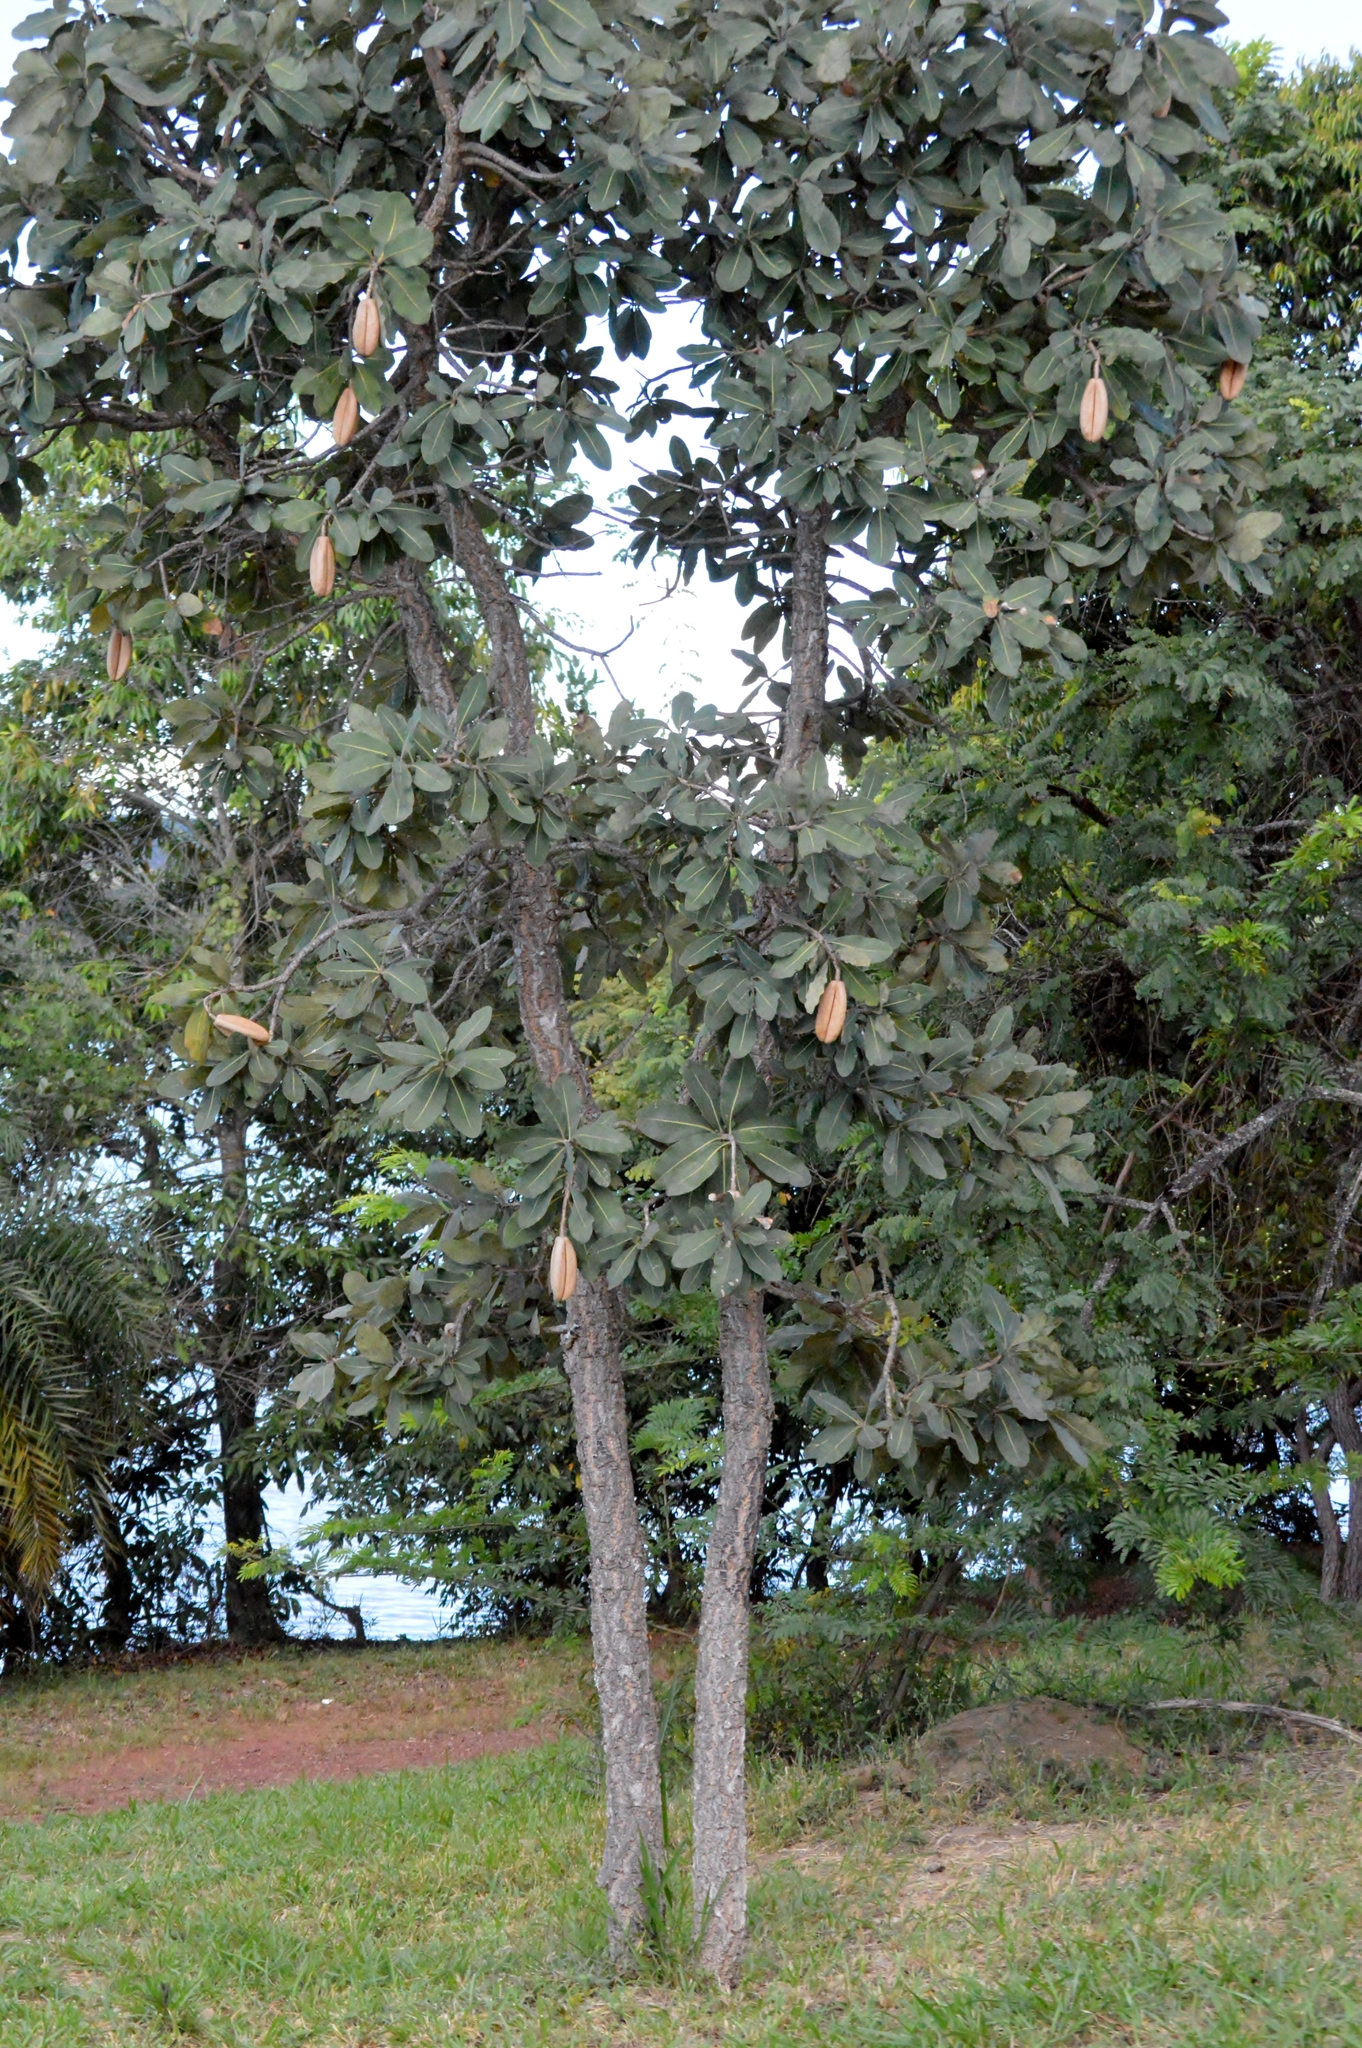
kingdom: Plantae
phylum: Tracheophyta
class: Magnoliopsida
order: Malpighiales
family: Calophyllaceae
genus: Kielmeyera
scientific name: Kielmeyera coriacea
